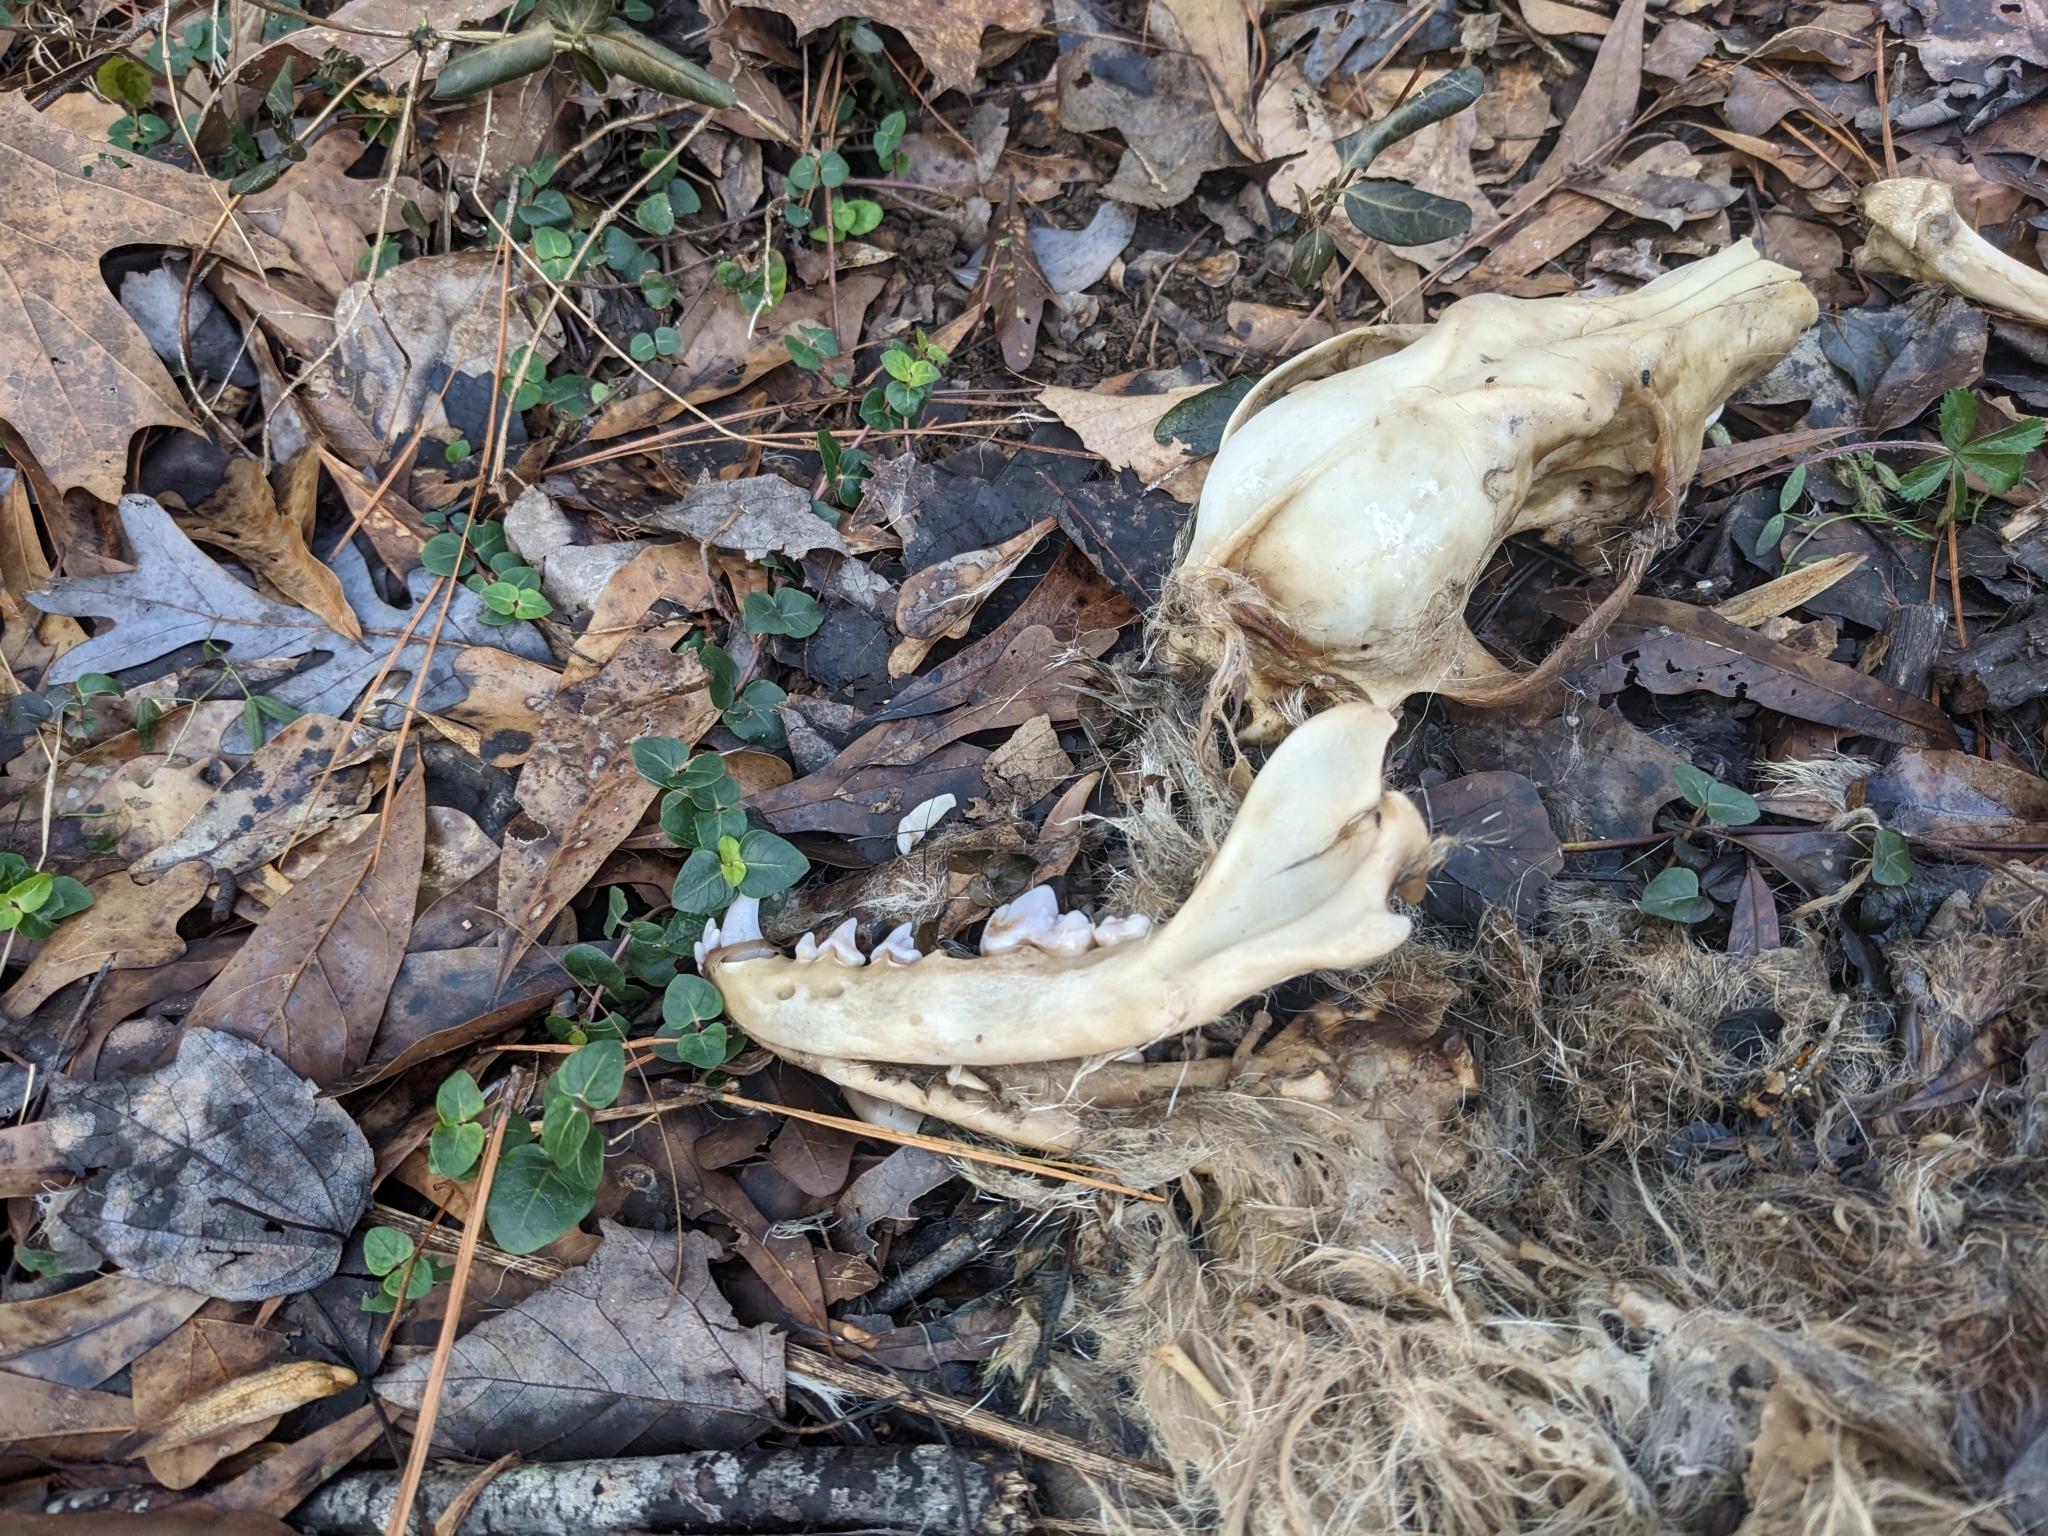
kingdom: Animalia
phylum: Chordata
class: Mammalia
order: Carnivora
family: Canidae
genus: Canis
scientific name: Canis latrans
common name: Coyote
